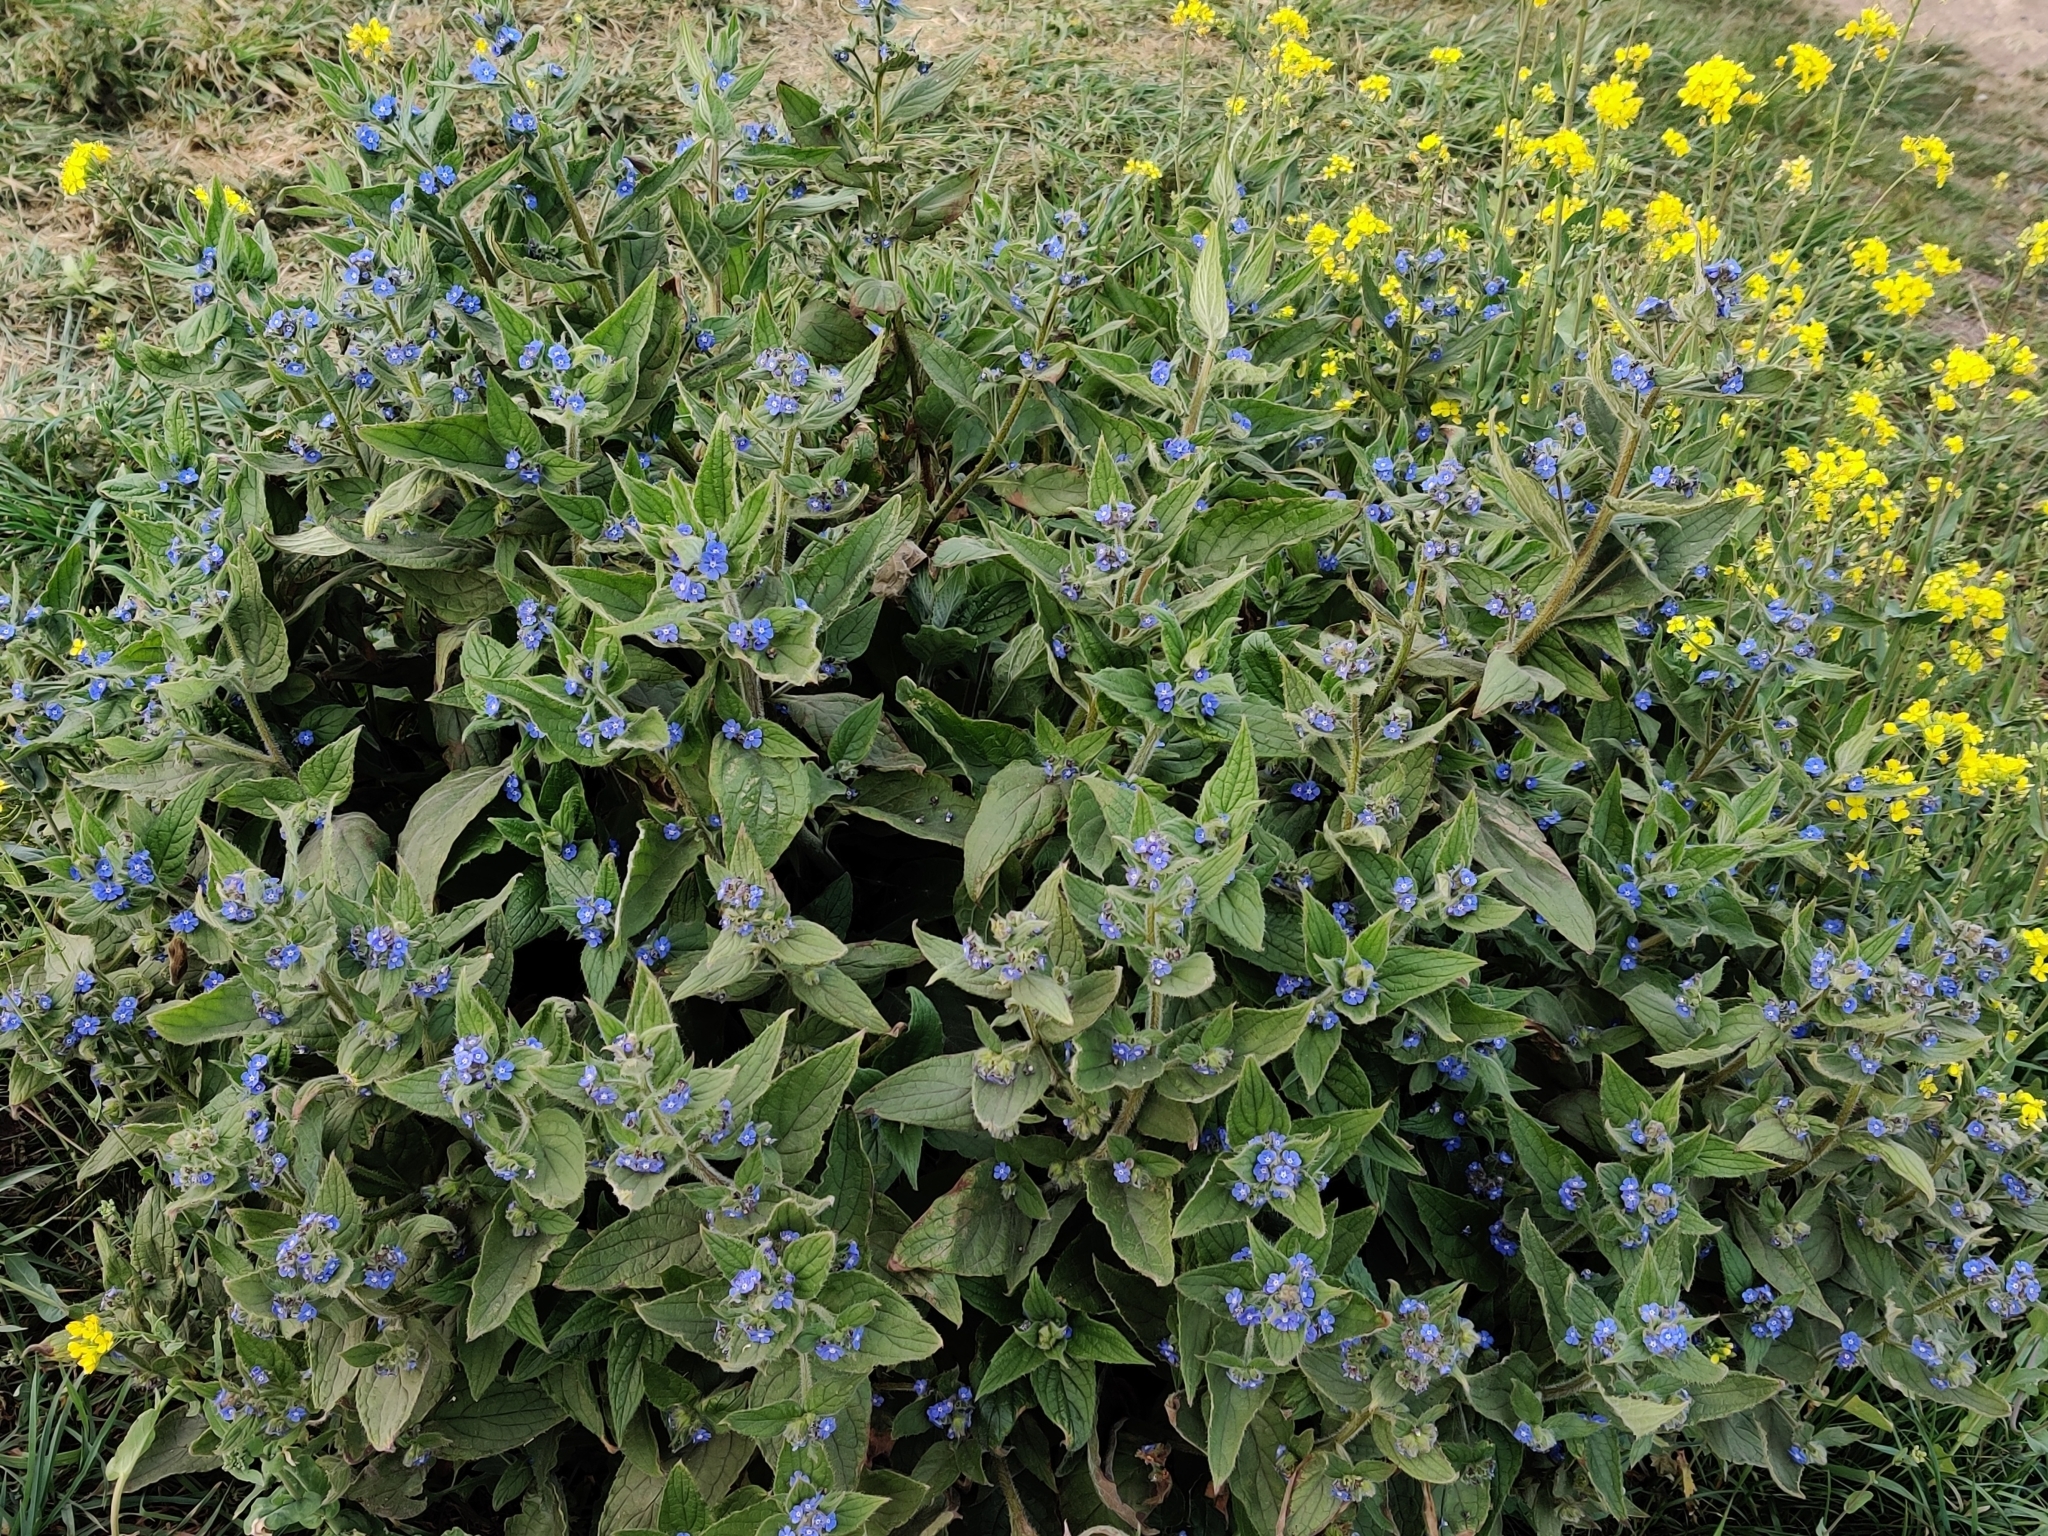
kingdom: Plantae
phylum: Tracheophyta
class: Magnoliopsida
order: Boraginales
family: Boraginaceae
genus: Pentaglottis
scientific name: Pentaglottis sempervirens
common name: Green alkanet
